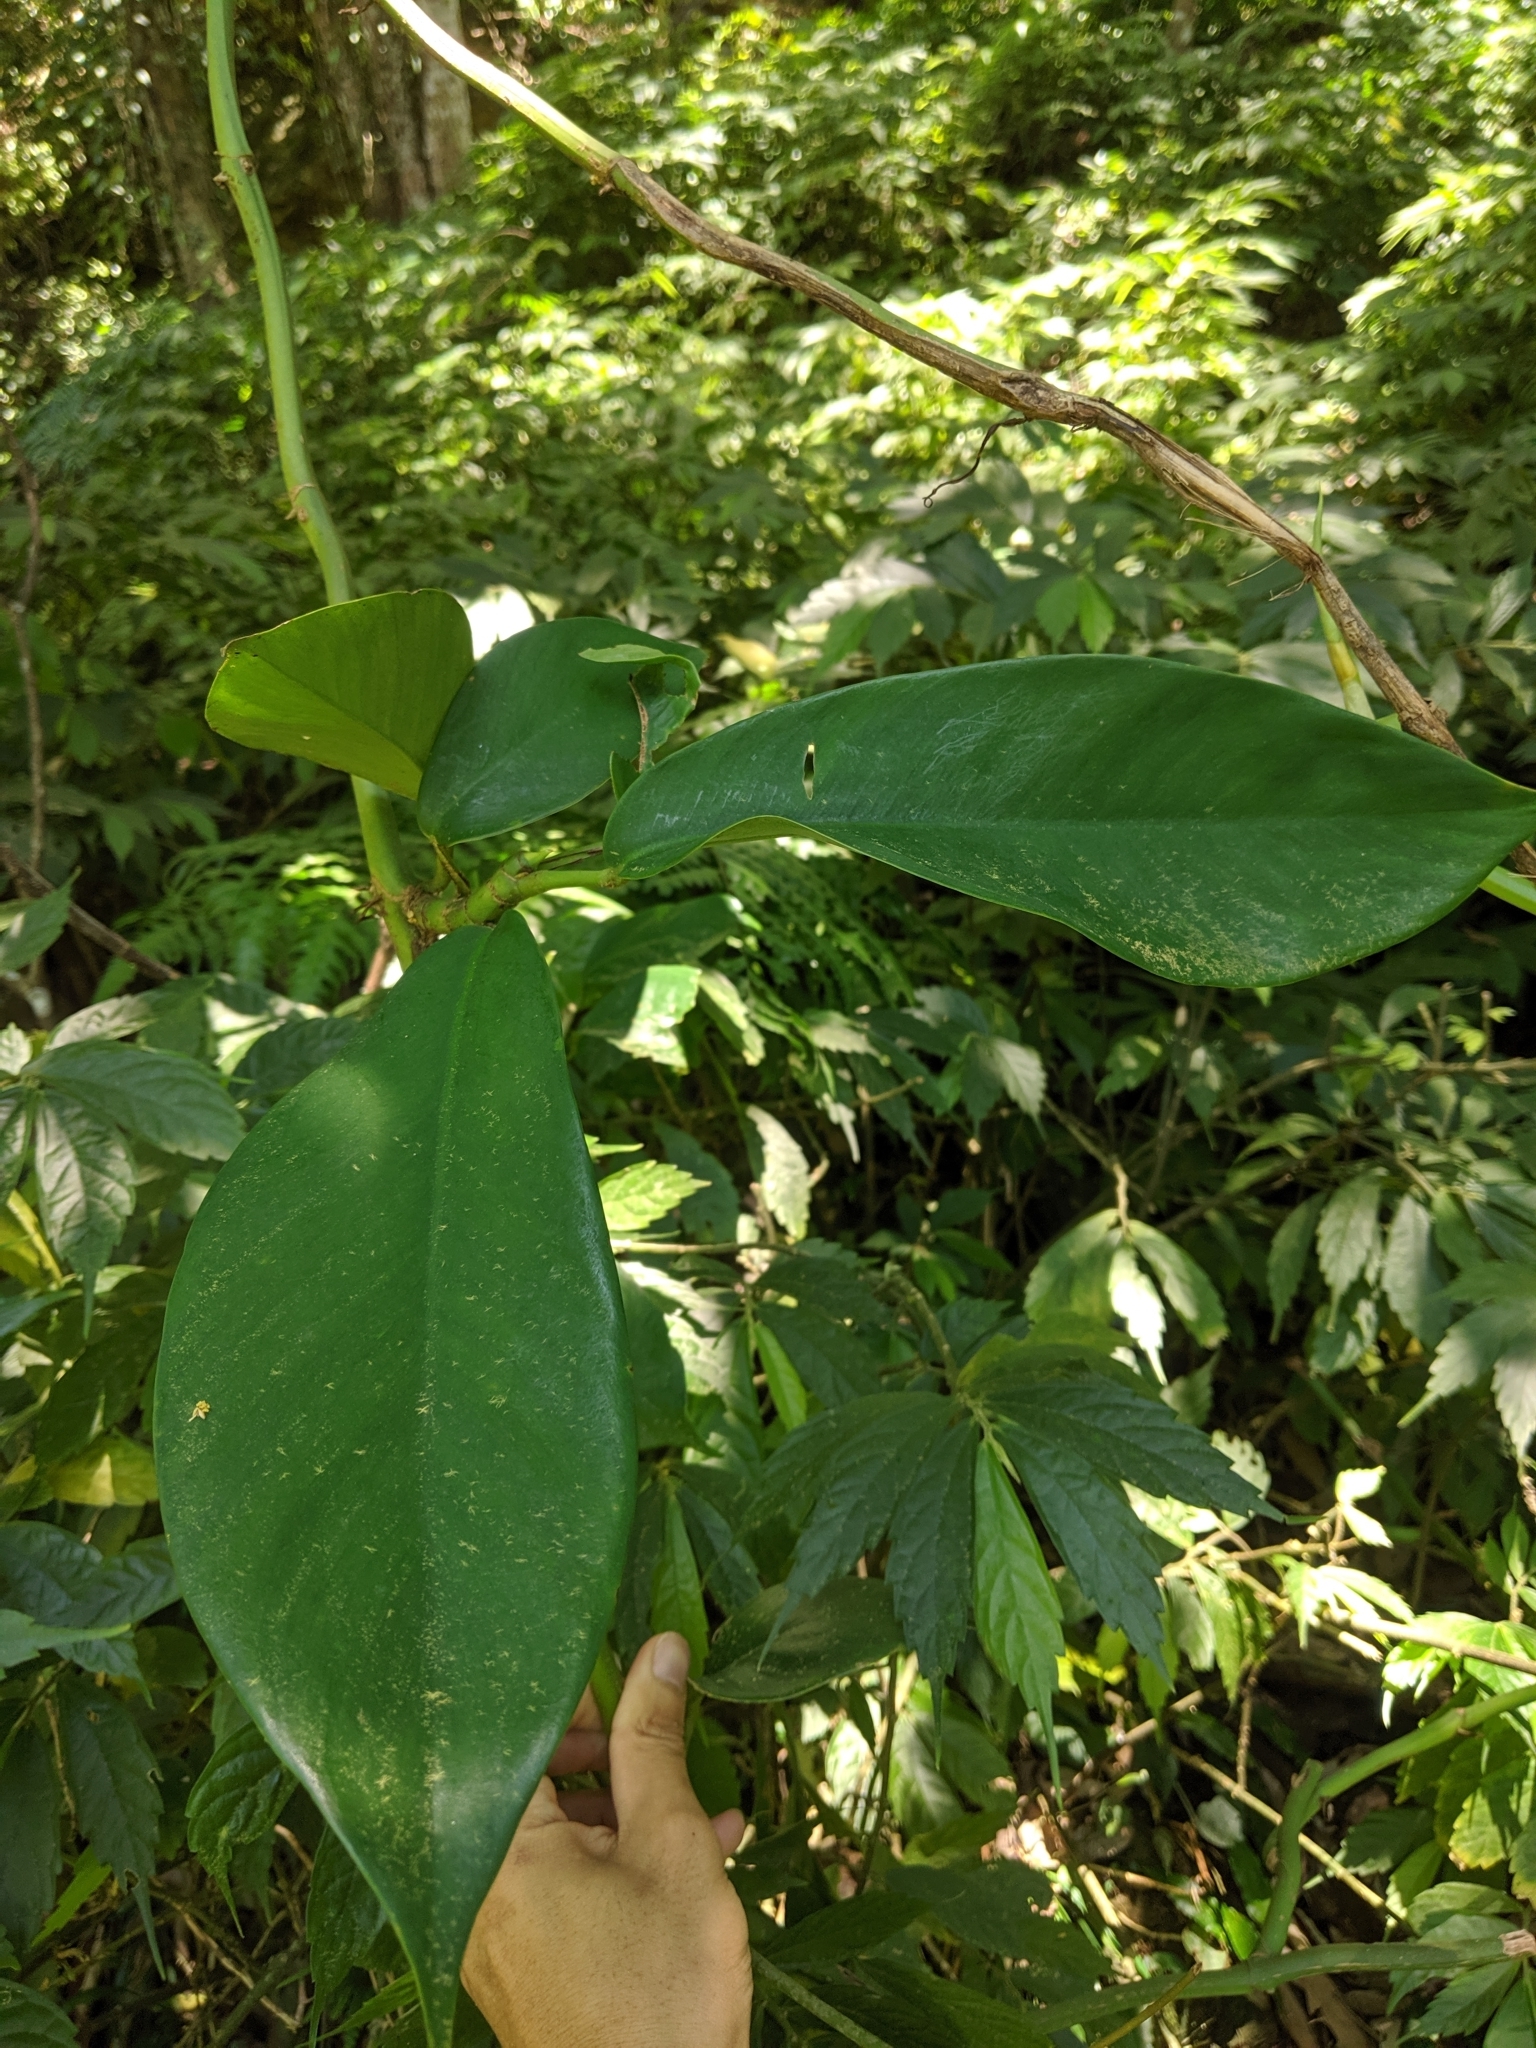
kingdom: Plantae
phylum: Tracheophyta
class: Liliopsida
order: Alismatales
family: Araceae
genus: Rhaphidophora
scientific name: Rhaphidophora hongkongensis
